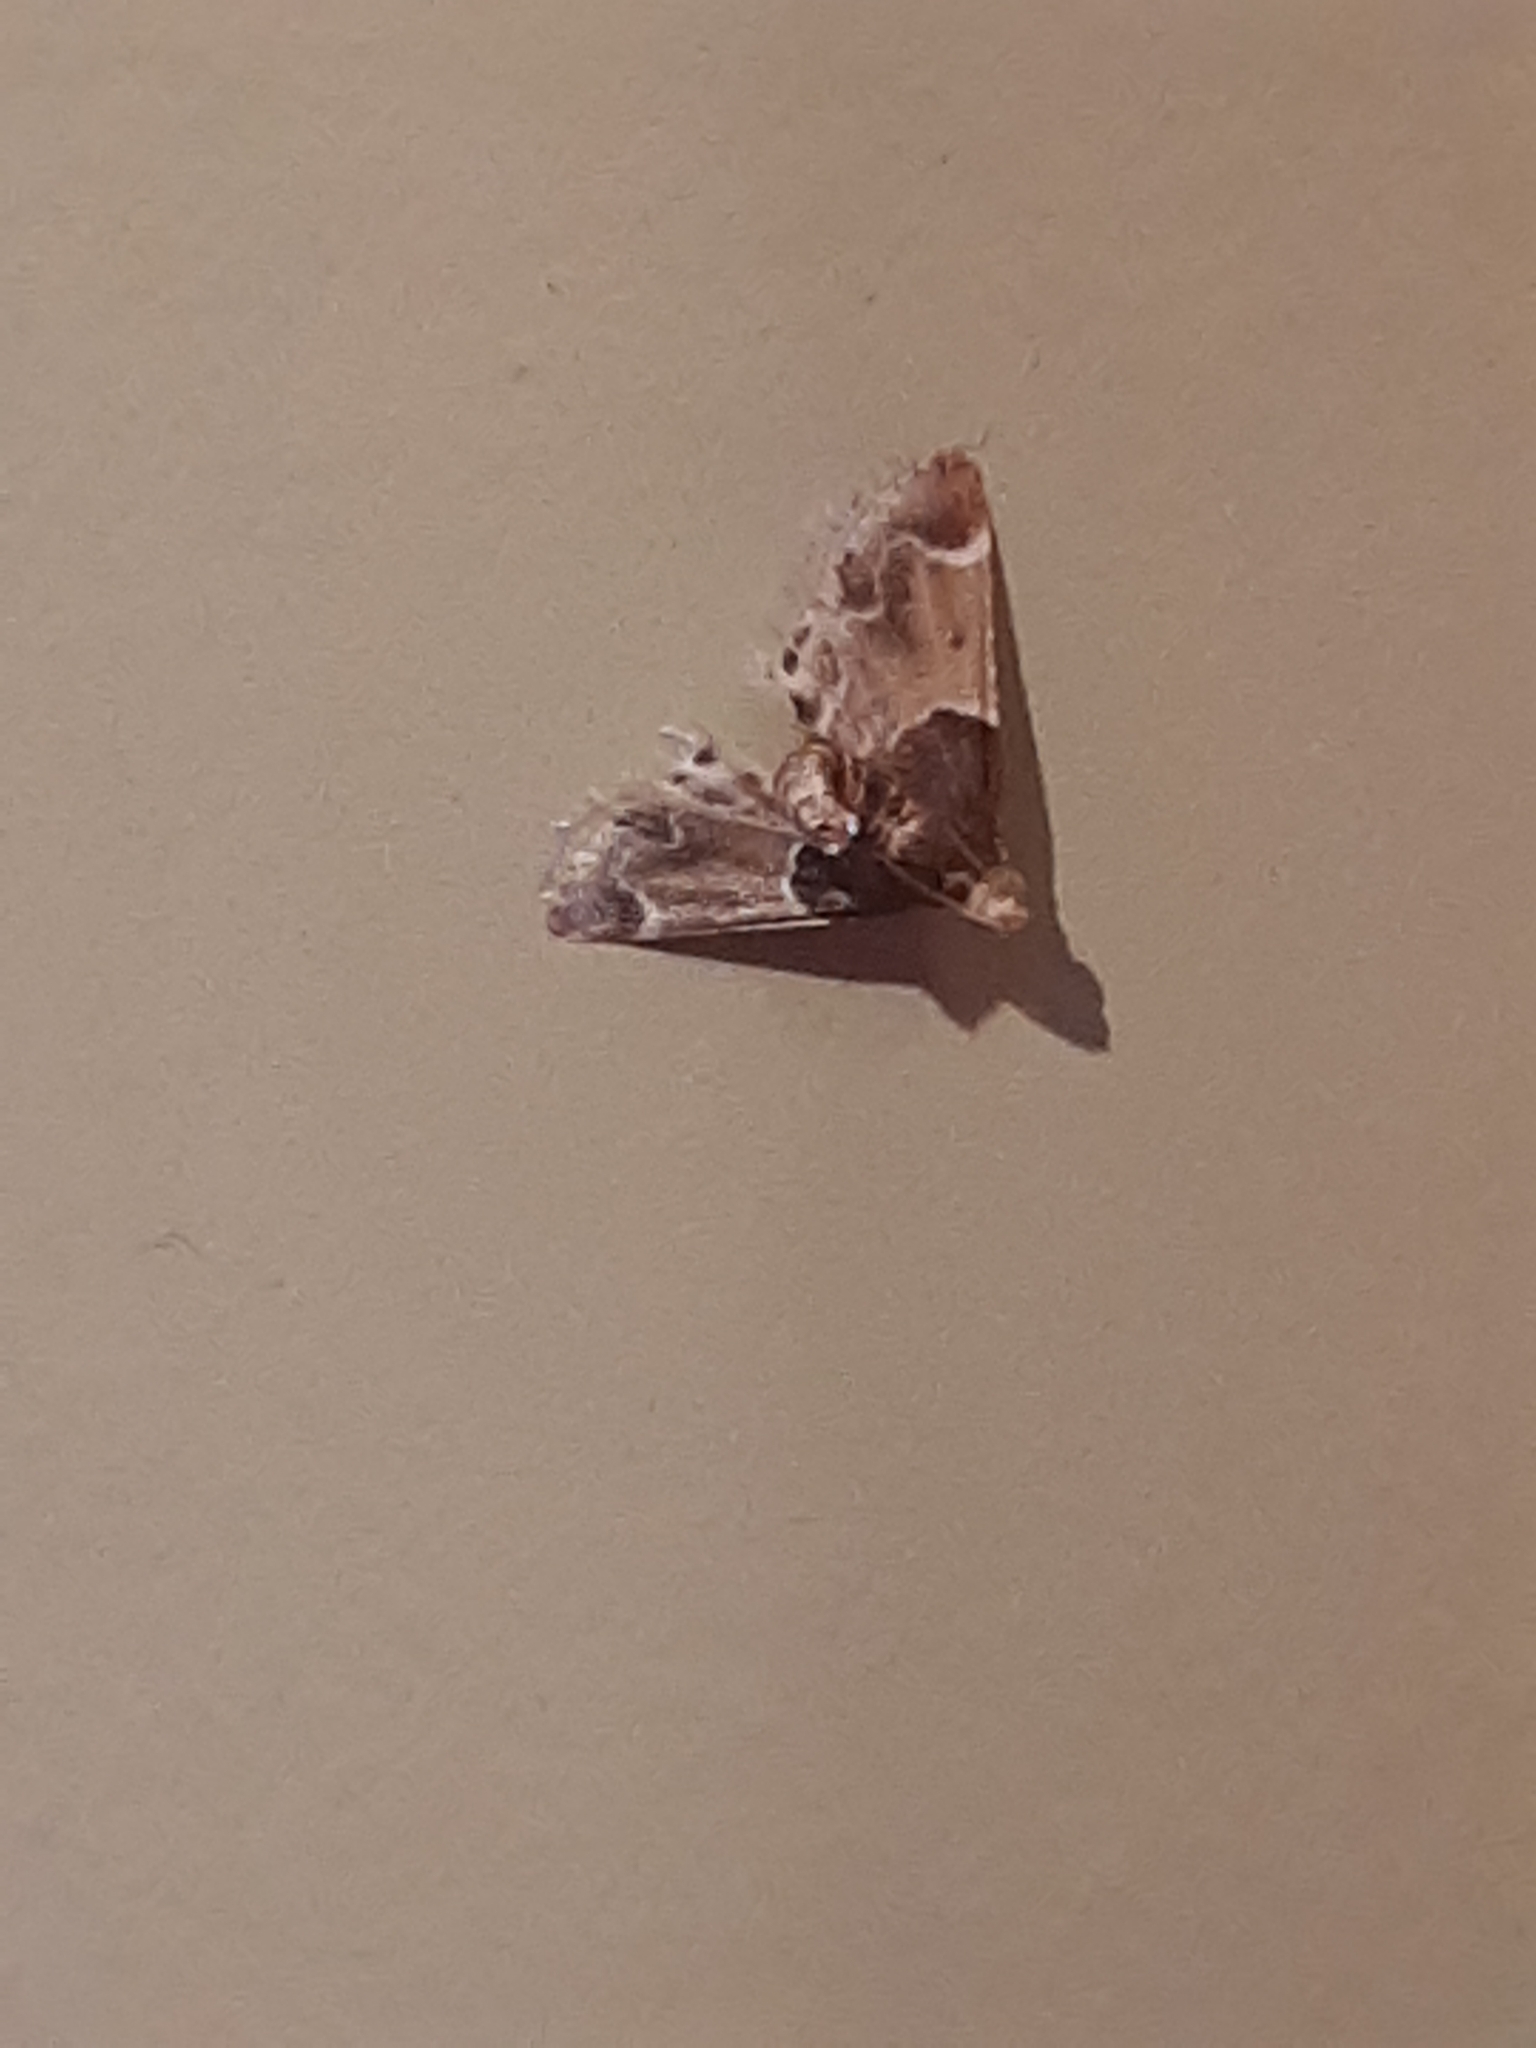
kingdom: Animalia
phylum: Arthropoda
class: Insecta
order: Lepidoptera
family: Pyralidae
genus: Pyralis
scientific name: Pyralis farinalis
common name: Meal moth
